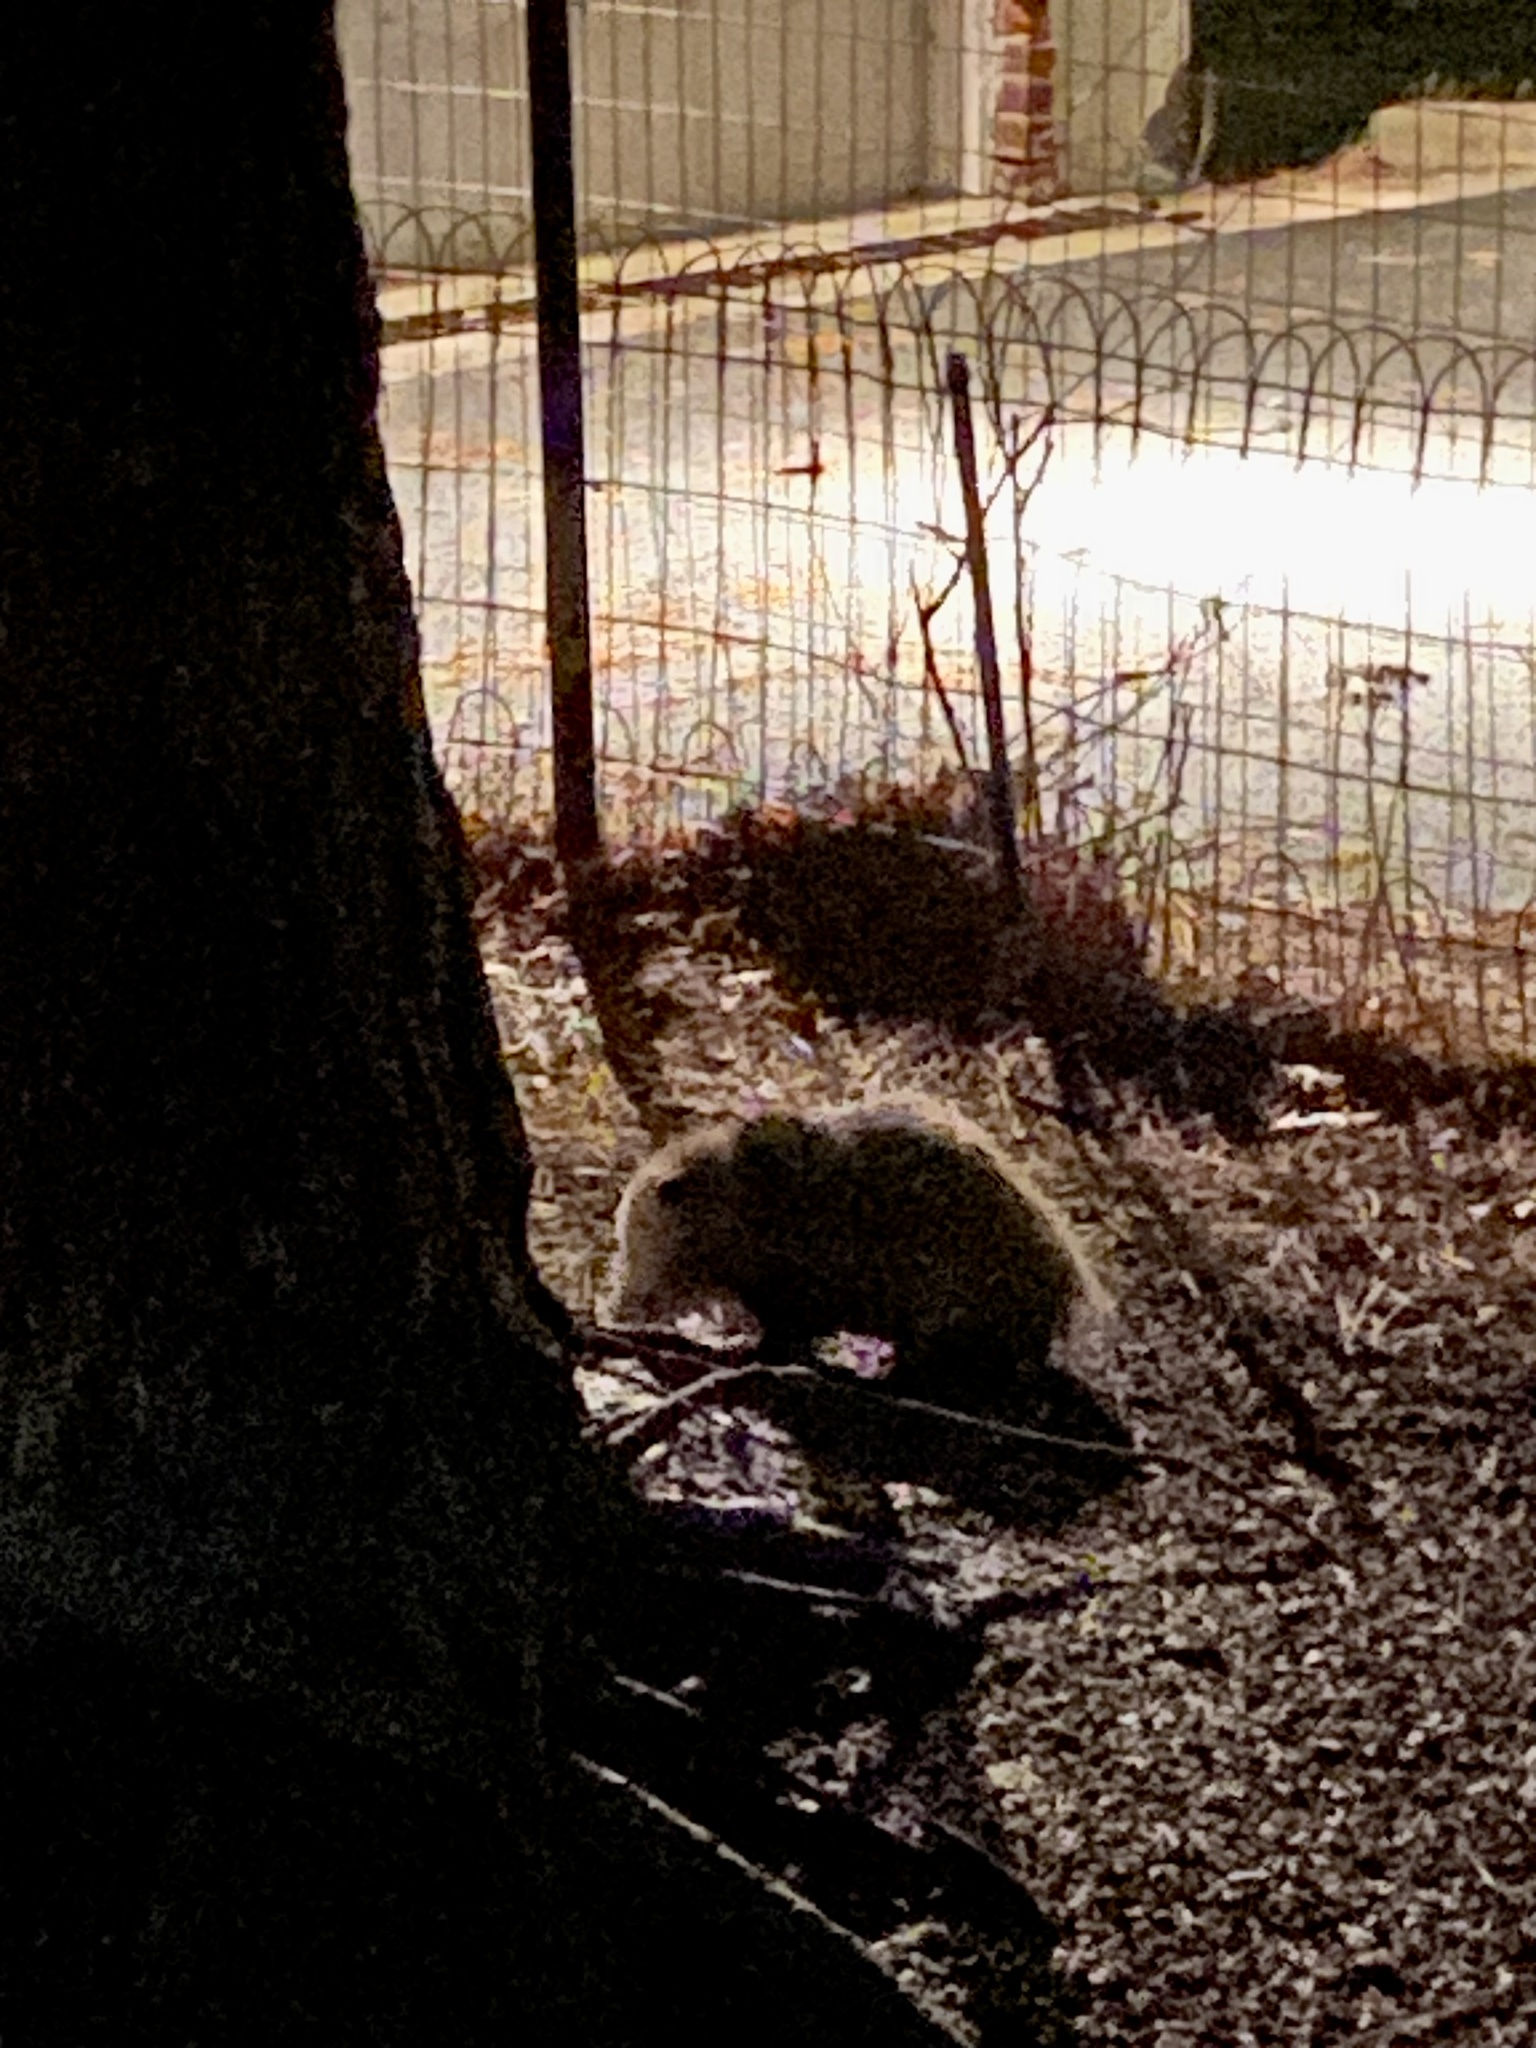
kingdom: Animalia
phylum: Chordata
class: Mammalia
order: Didelphimorphia
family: Didelphidae
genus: Didelphis
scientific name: Didelphis virginiana
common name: Virginia opossum
